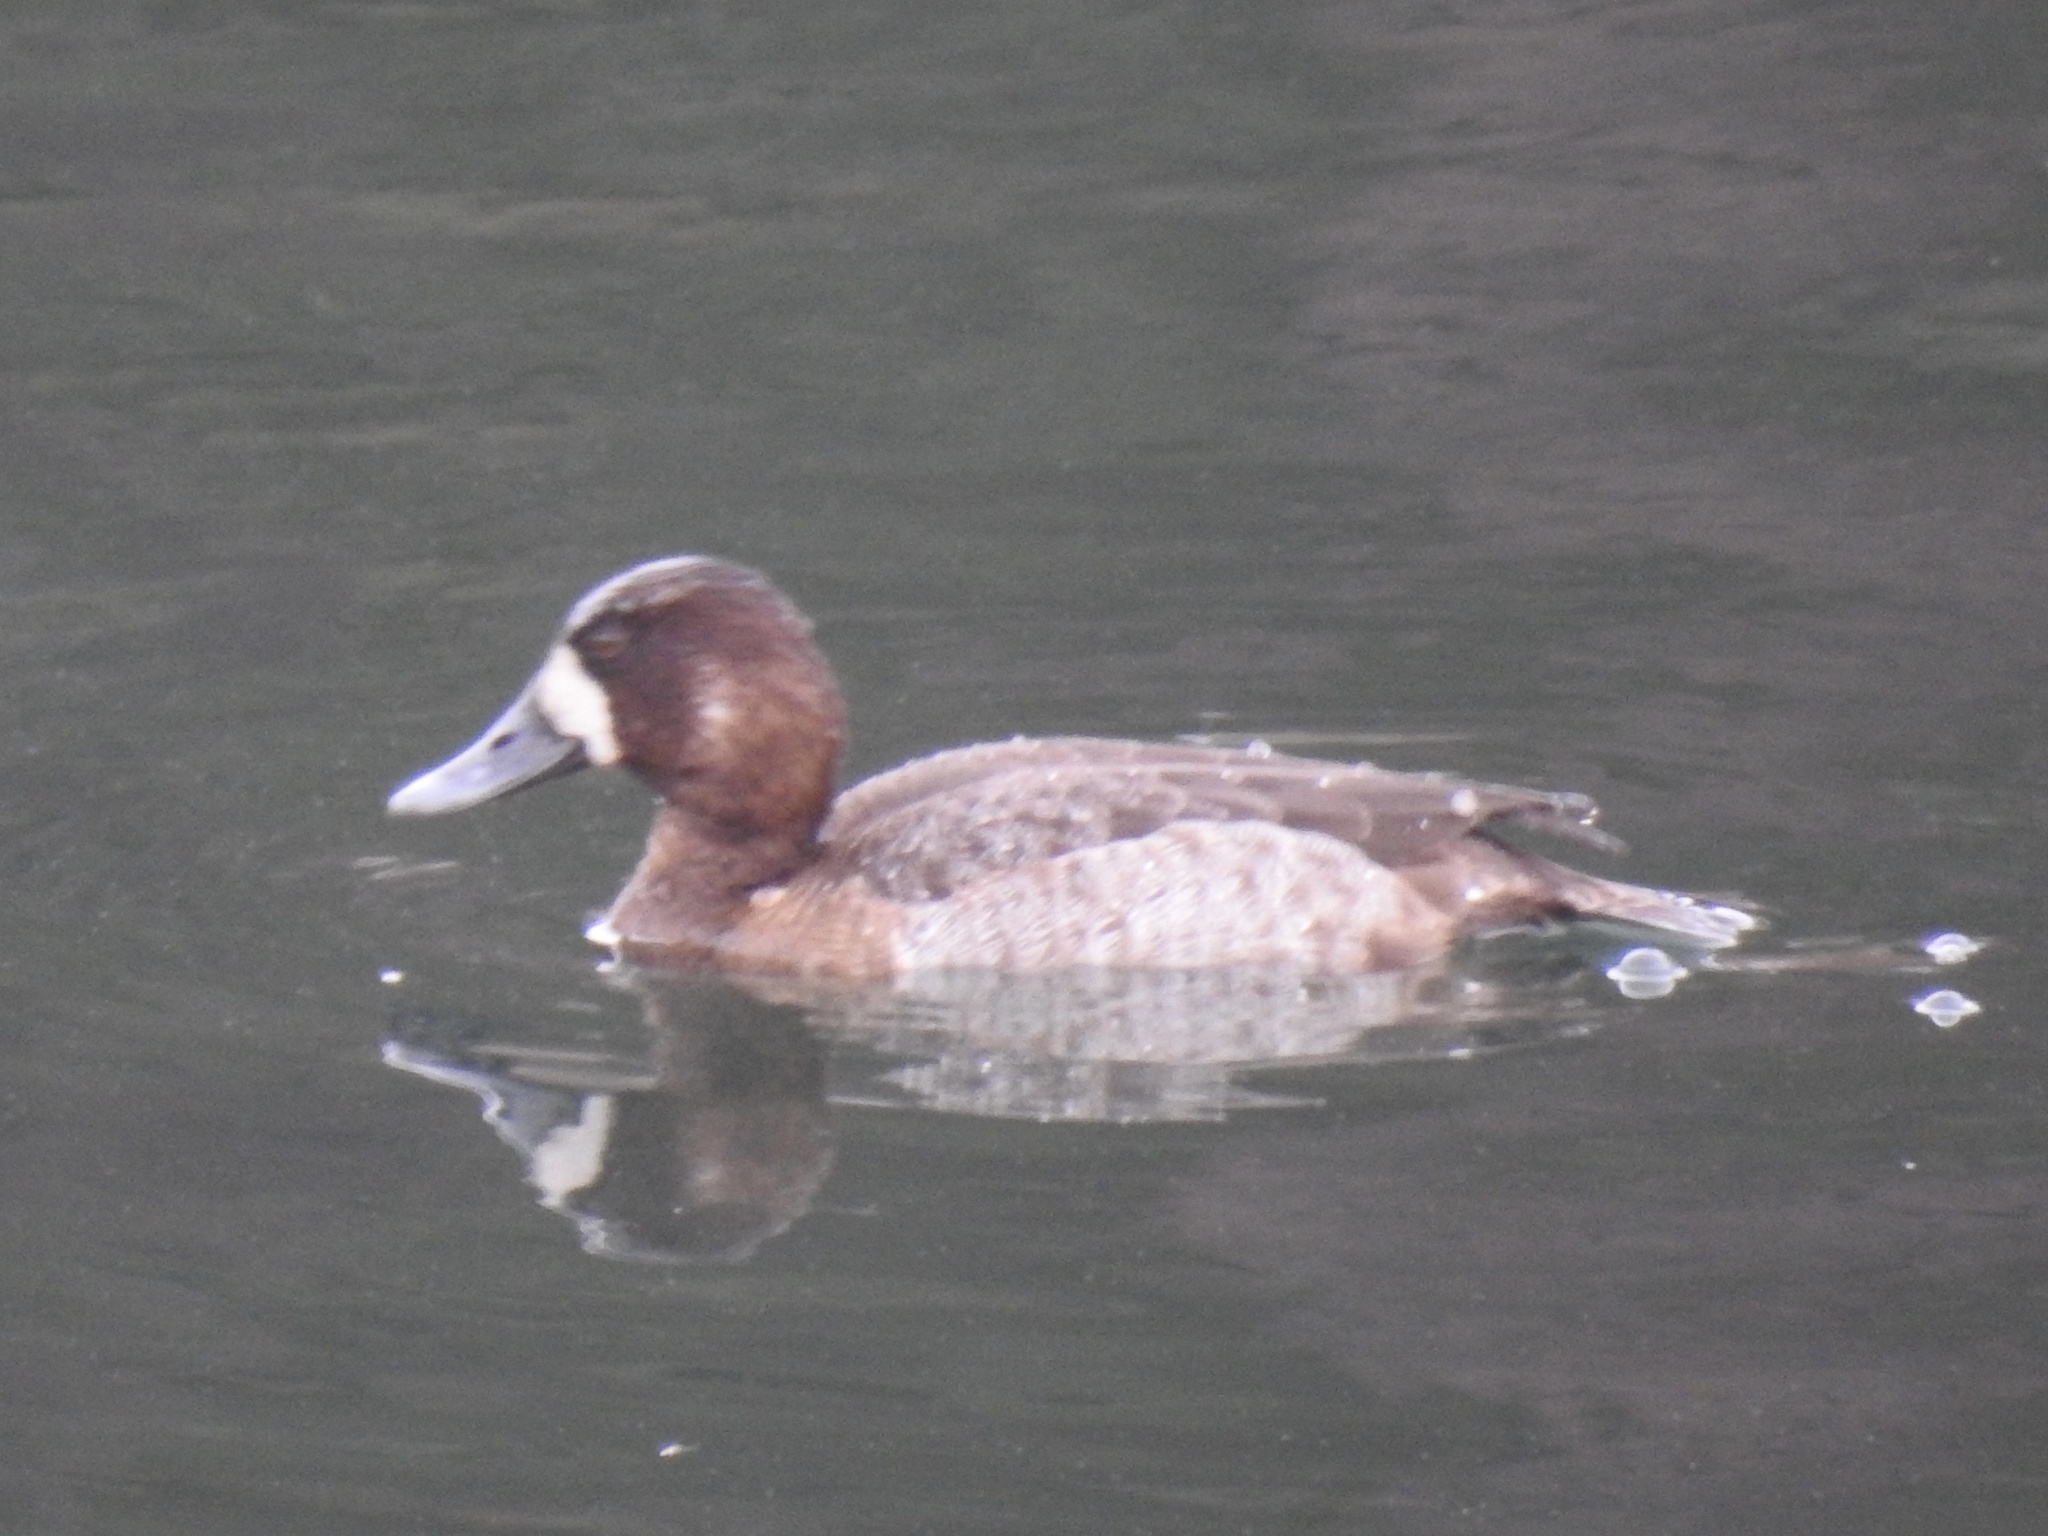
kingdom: Animalia
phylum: Chordata
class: Aves
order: Anseriformes
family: Anatidae
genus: Aythya
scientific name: Aythya marila
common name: Greater scaup
